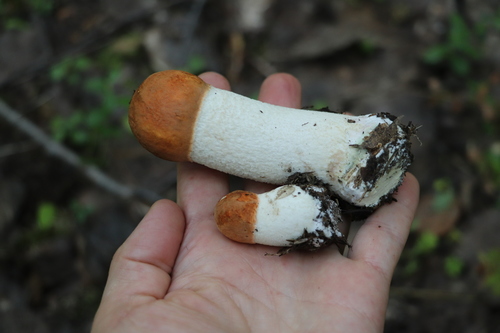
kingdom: Fungi
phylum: Basidiomycota
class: Agaricomycetes
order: Boletales
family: Boletaceae
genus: Leccinum
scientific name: Leccinum albostipitatum
